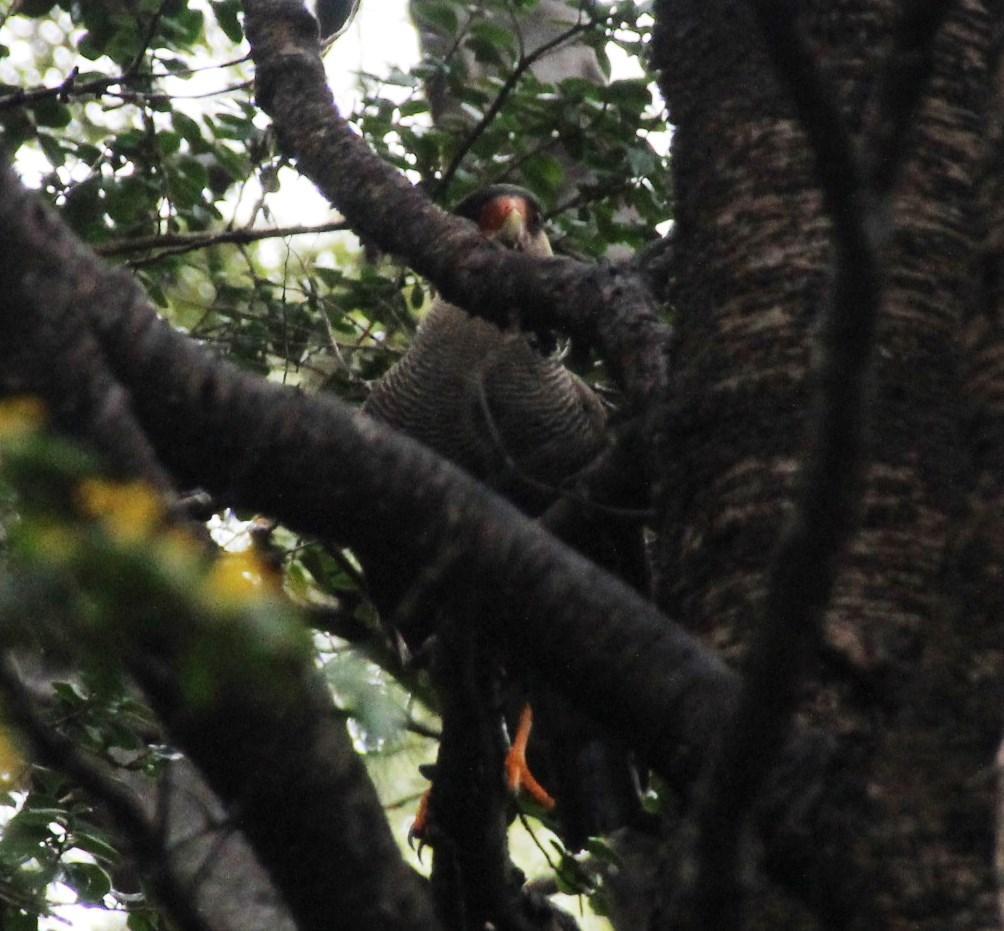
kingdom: Animalia
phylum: Chordata
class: Aves
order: Falconiformes
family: Falconidae
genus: Caracara
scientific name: Caracara plancus
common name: Southern caracara
